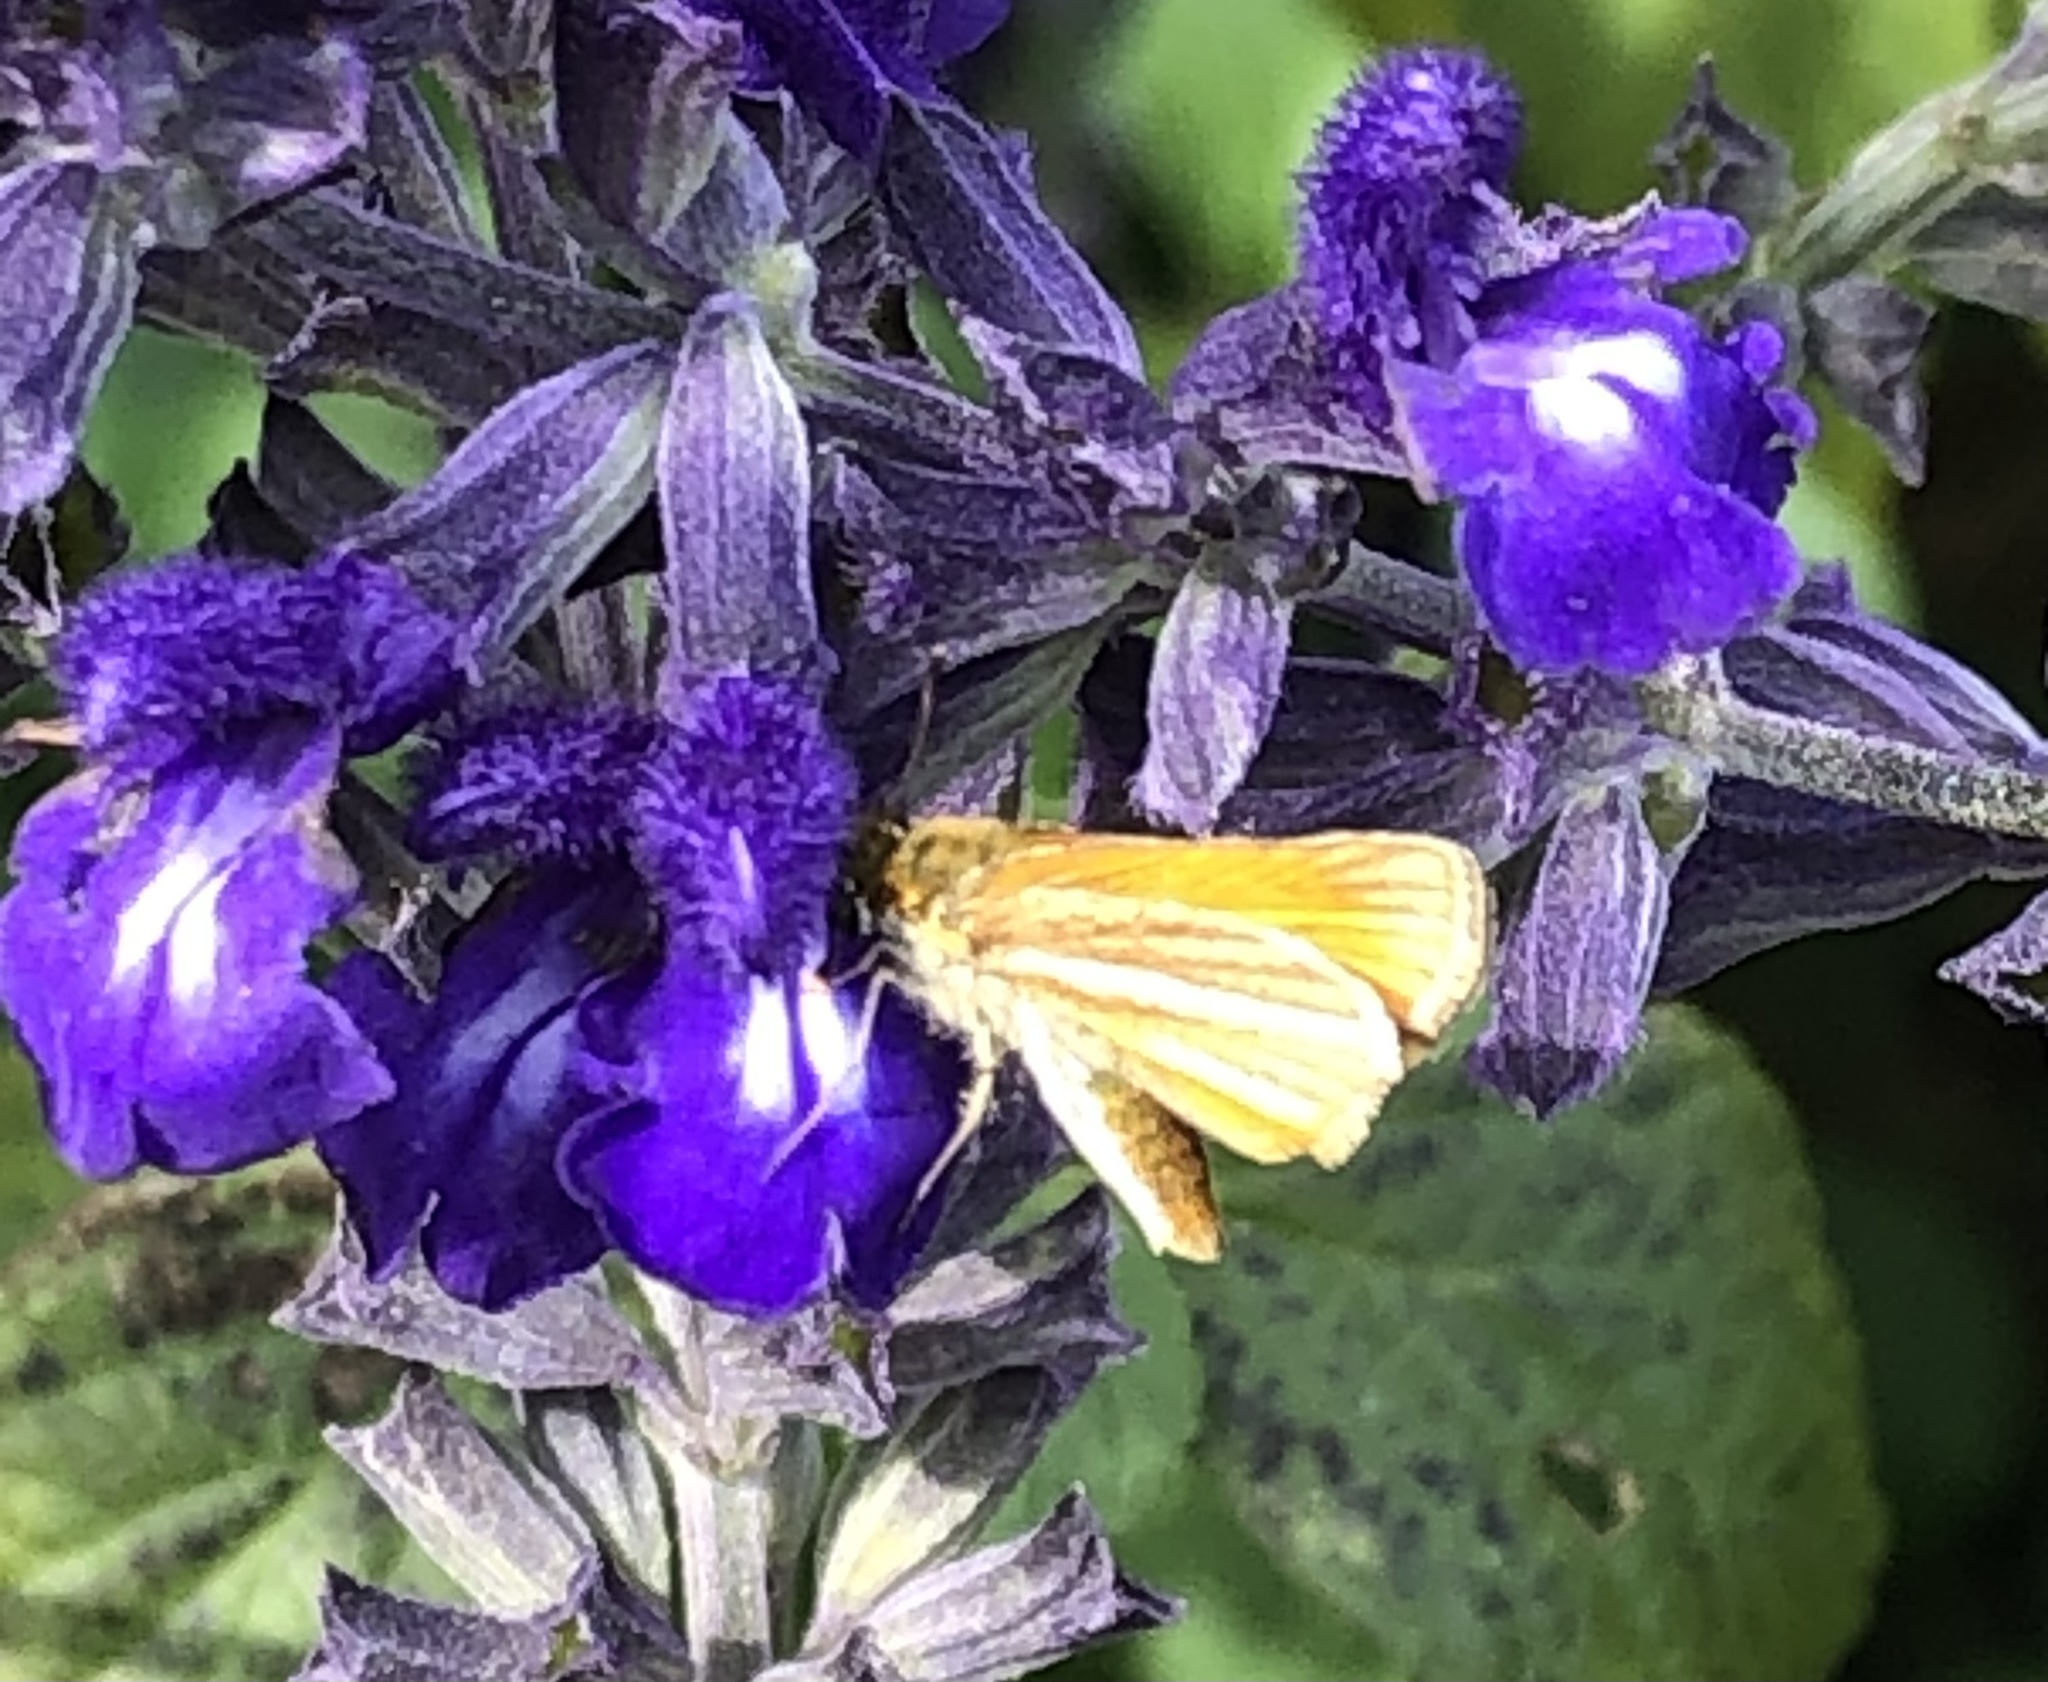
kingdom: Animalia
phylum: Arthropoda
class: Insecta
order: Lepidoptera
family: Hesperiidae
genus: Copaeodes
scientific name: Copaeodes minima
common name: Southern skipperling
